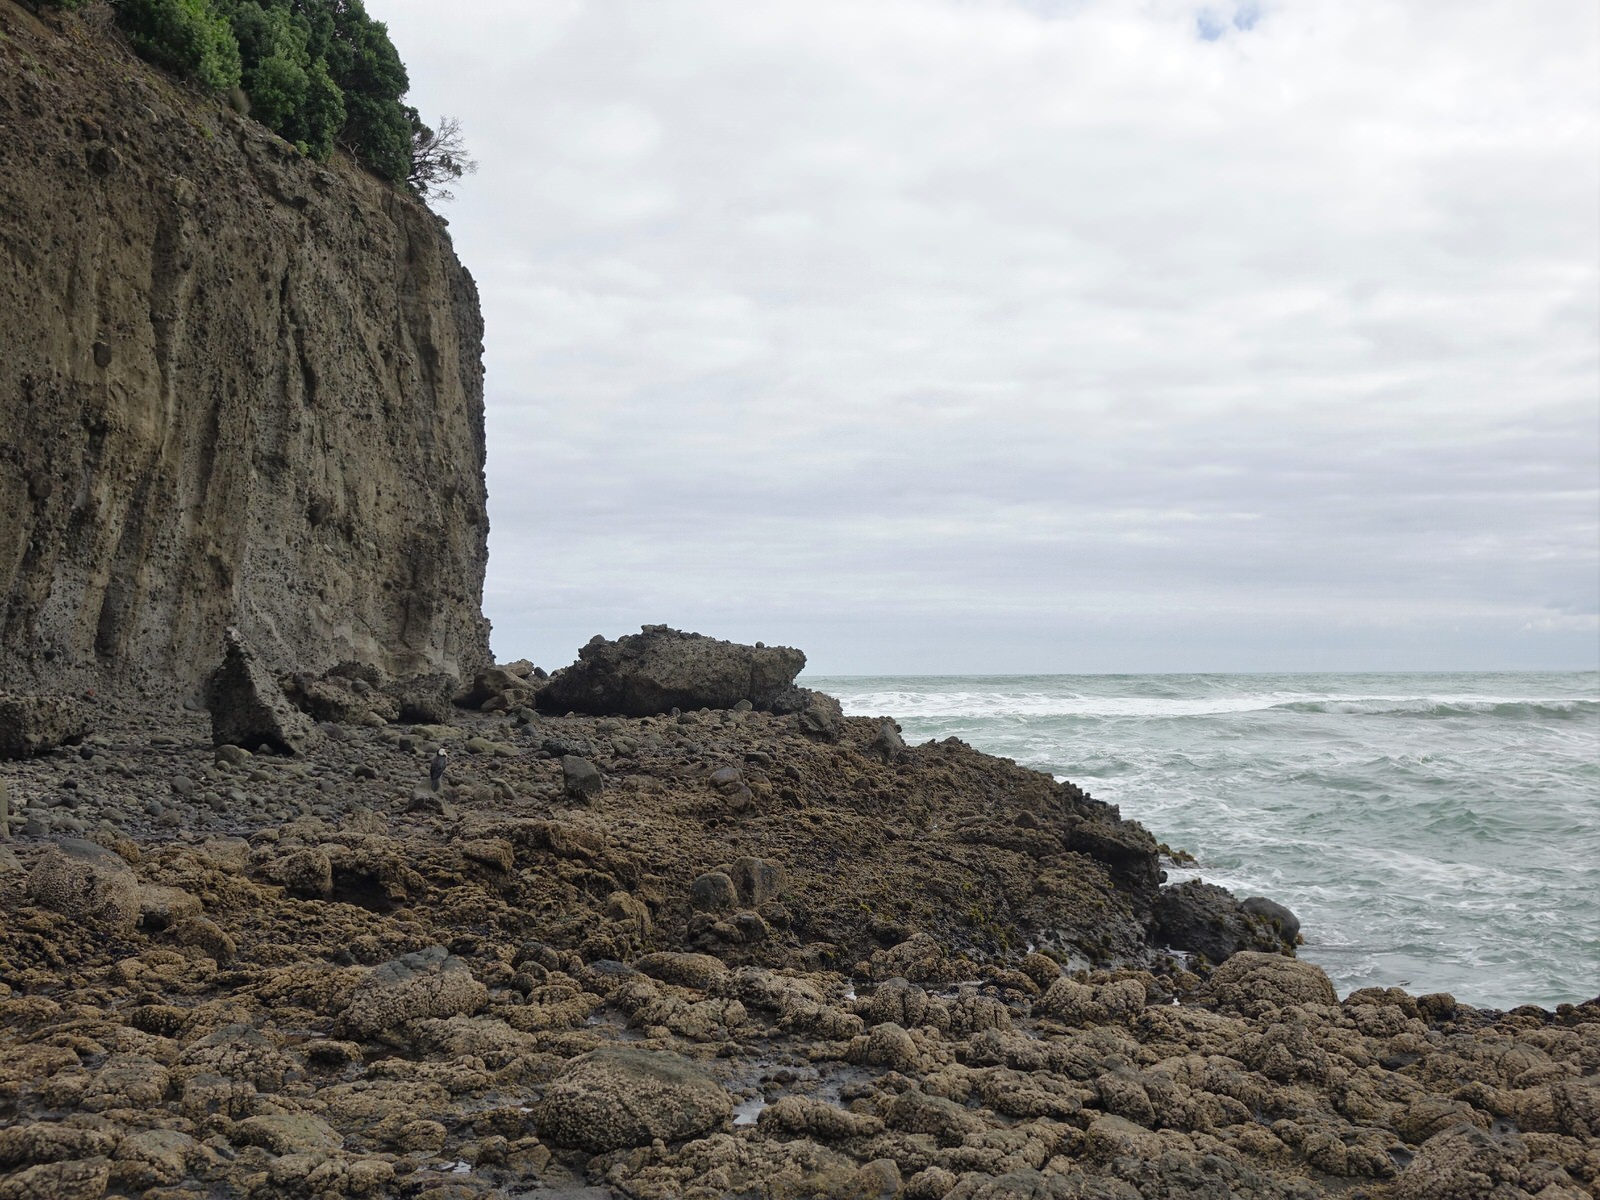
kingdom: Animalia
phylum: Chordata
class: Aves
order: Suliformes
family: Phalacrocoracidae
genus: Microcarbo
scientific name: Microcarbo melanoleucos
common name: Little pied cormorant
